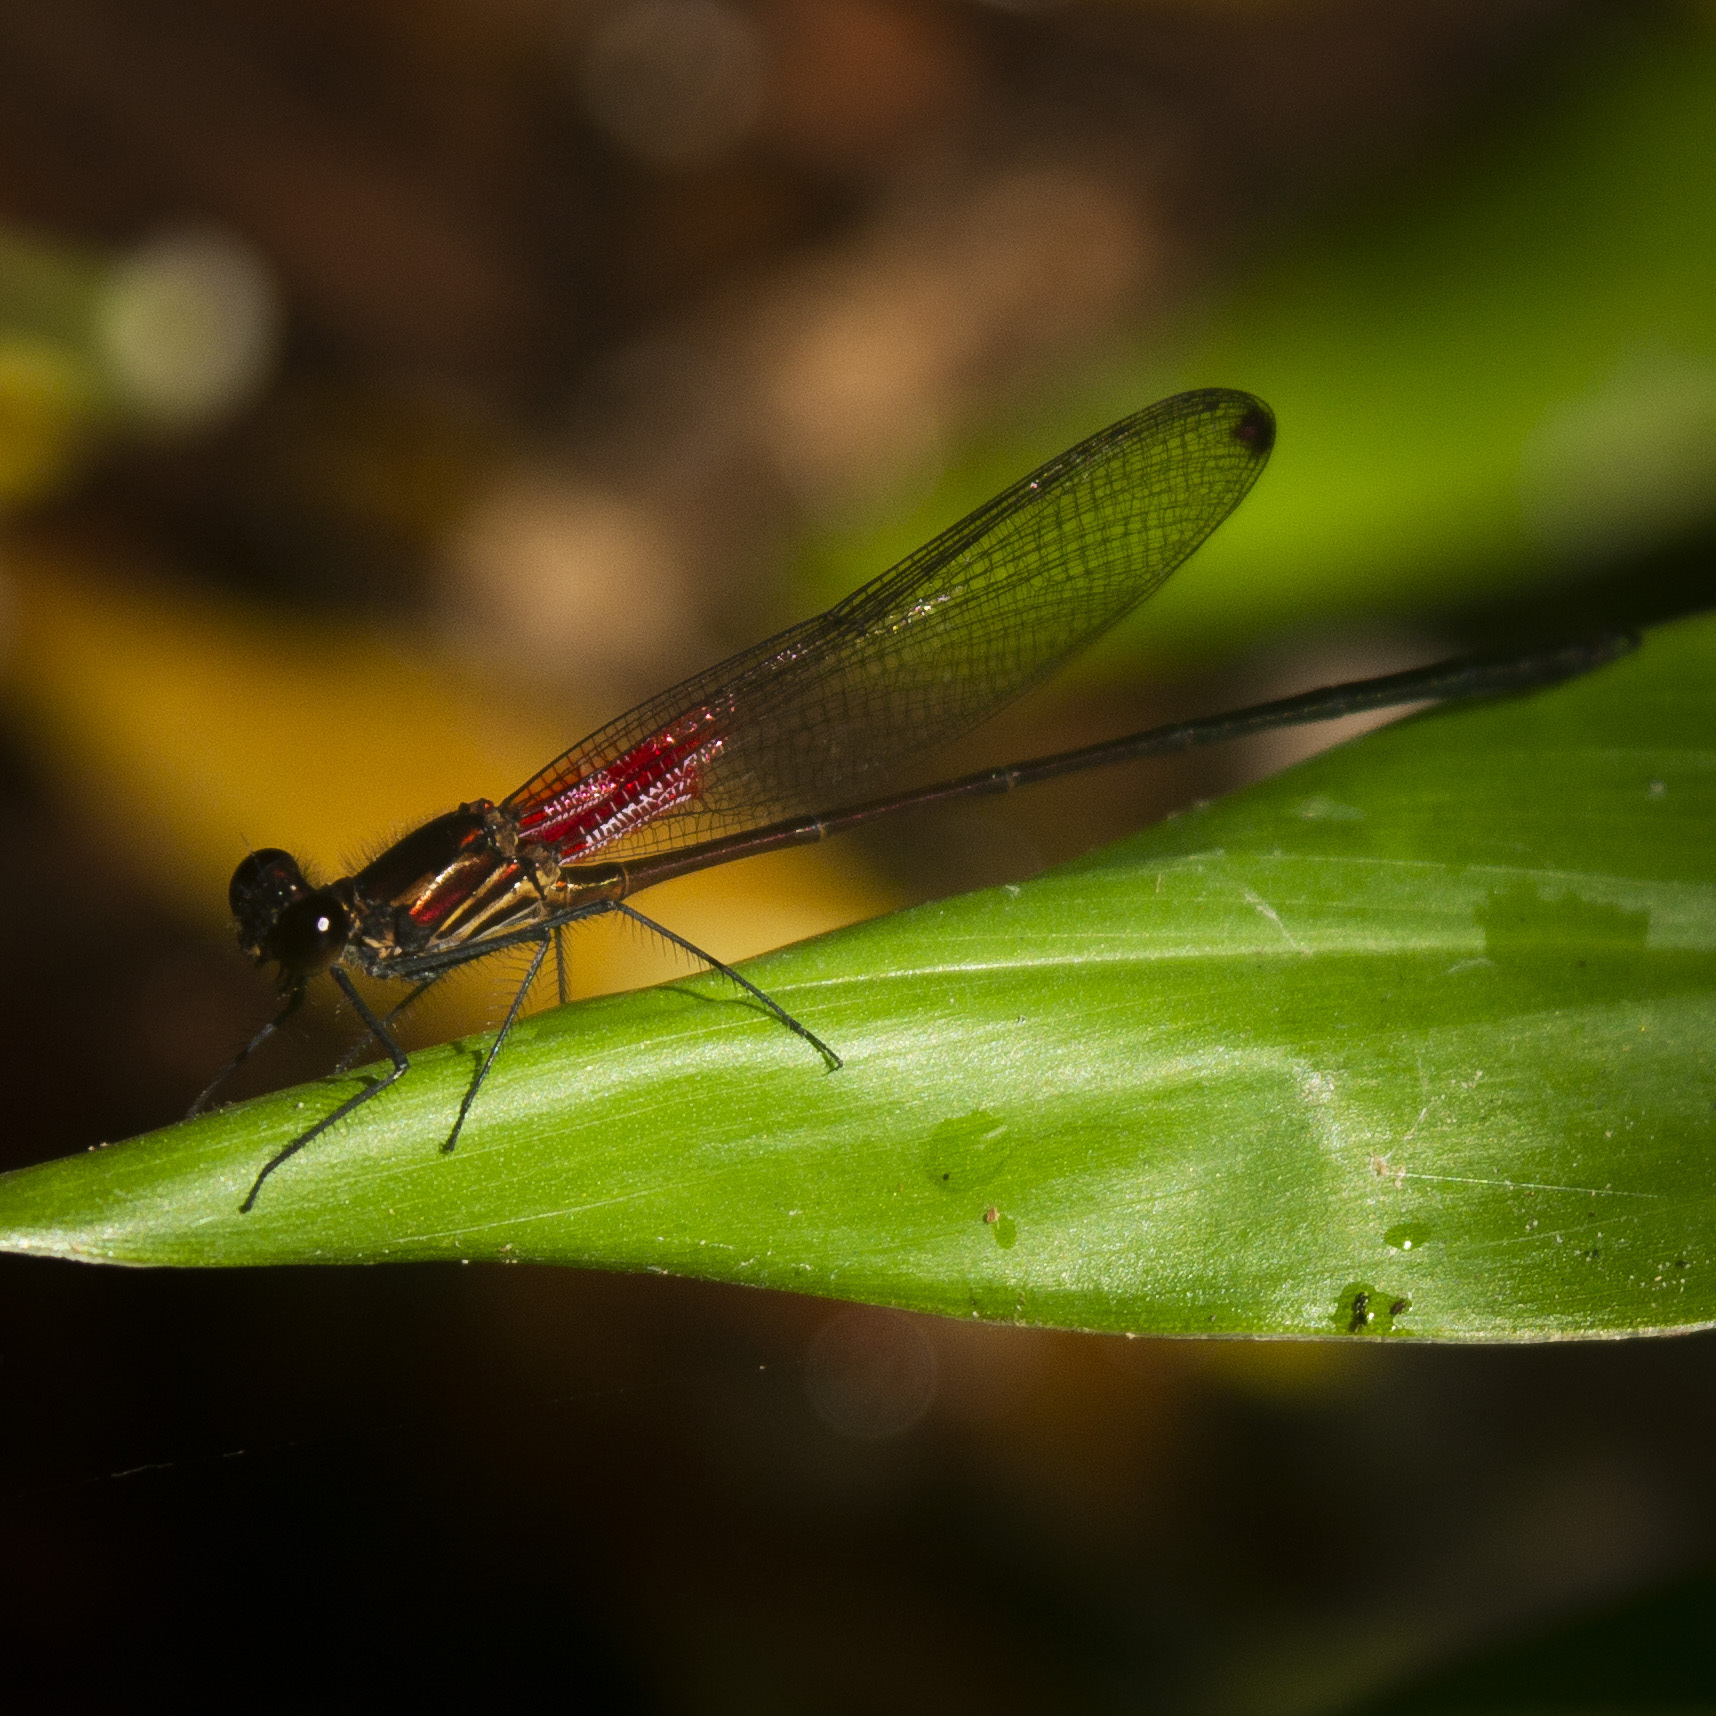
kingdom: Animalia
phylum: Arthropoda
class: Insecta
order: Odonata
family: Calopterygidae
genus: Hetaerina
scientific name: Hetaerina occisa
